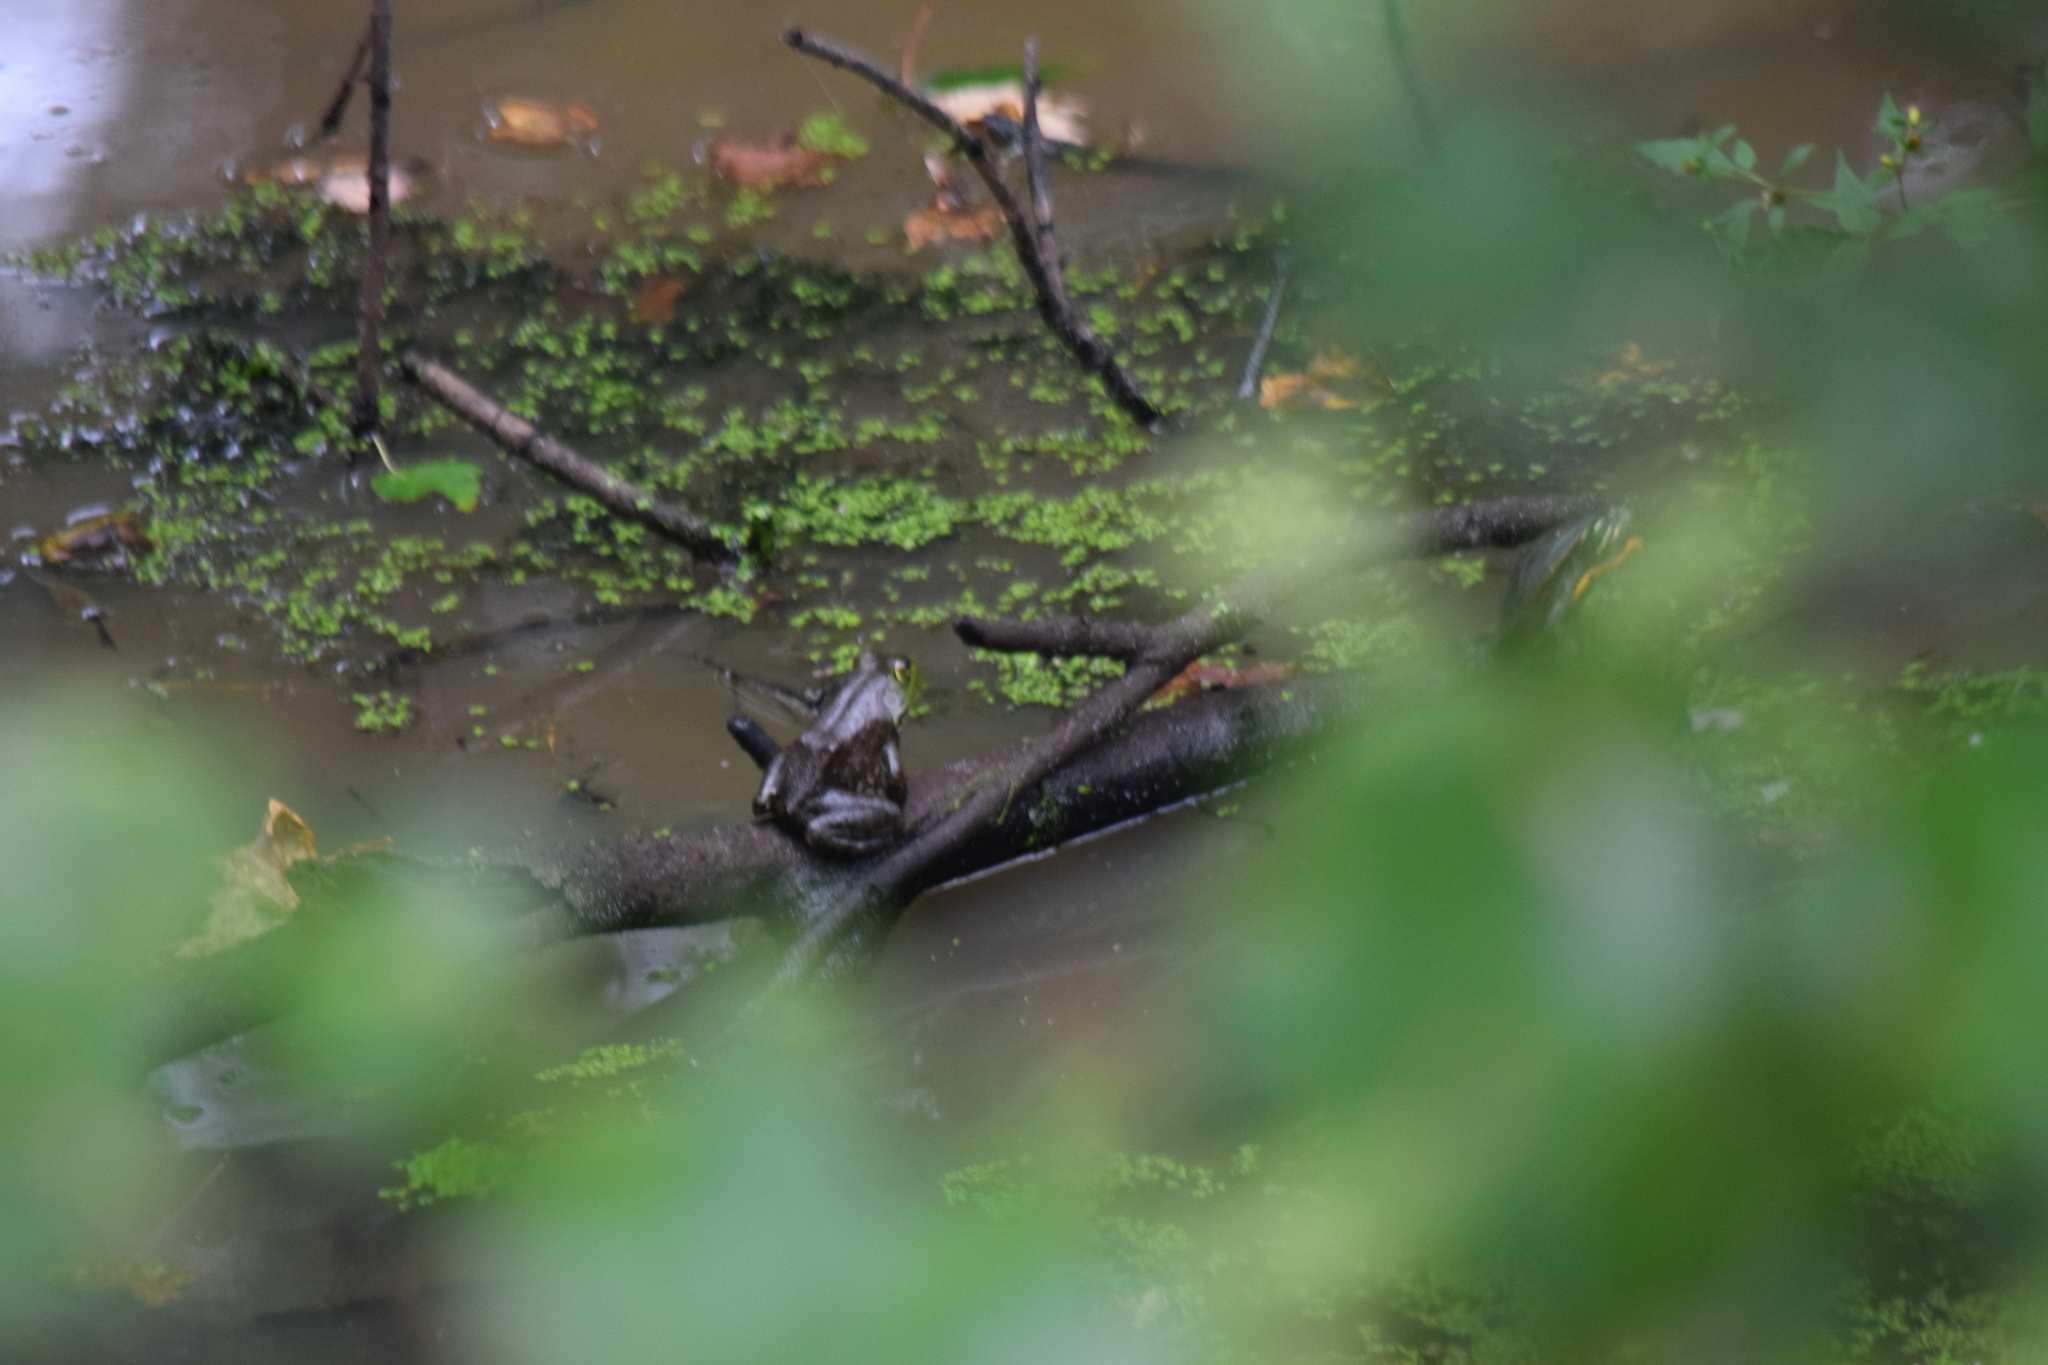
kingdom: Animalia
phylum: Chordata
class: Amphibia
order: Anura
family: Ranidae
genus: Lithobates
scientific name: Lithobates catesbeianus
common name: American bullfrog
